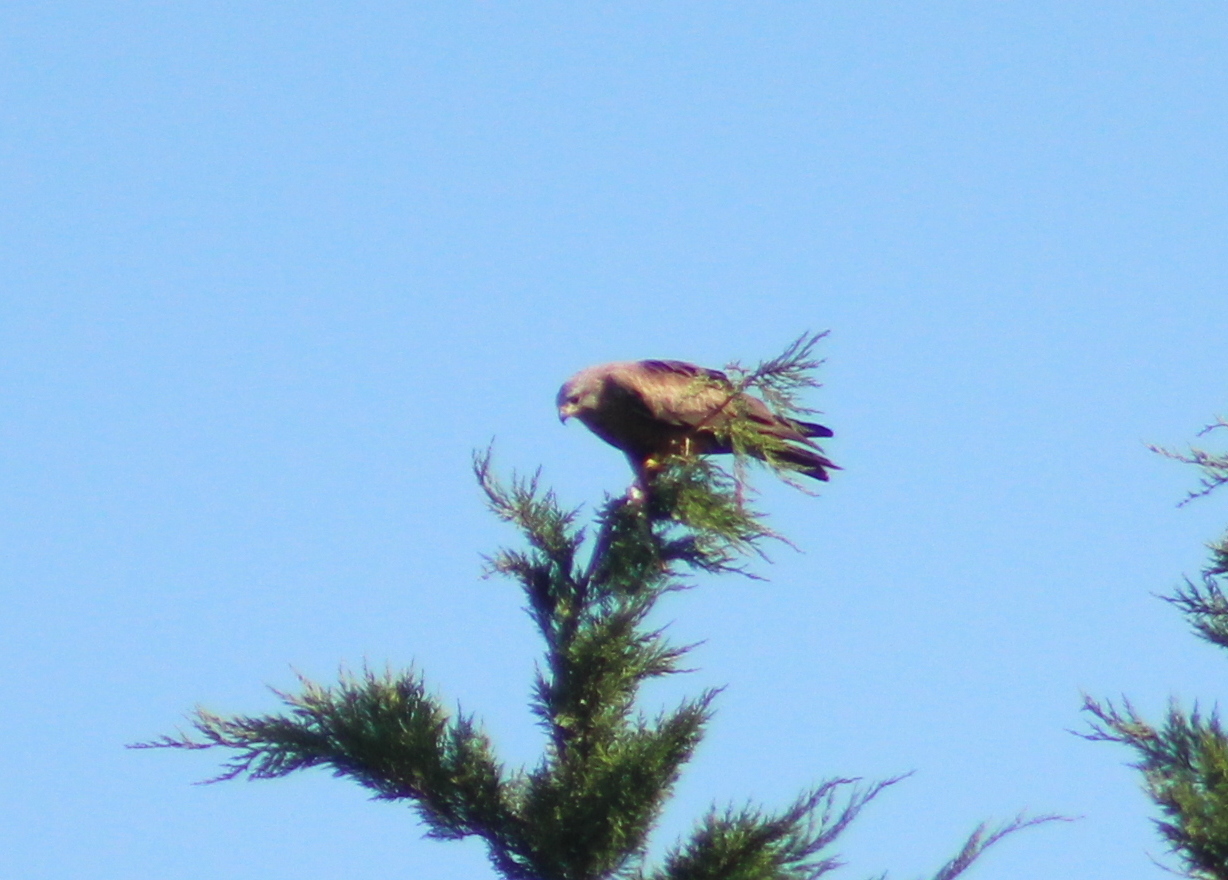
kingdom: Animalia
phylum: Chordata
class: Aves
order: Accipitriformes
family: Accipitridae
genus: Milvus
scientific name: Milvus migrans
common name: Black kite
